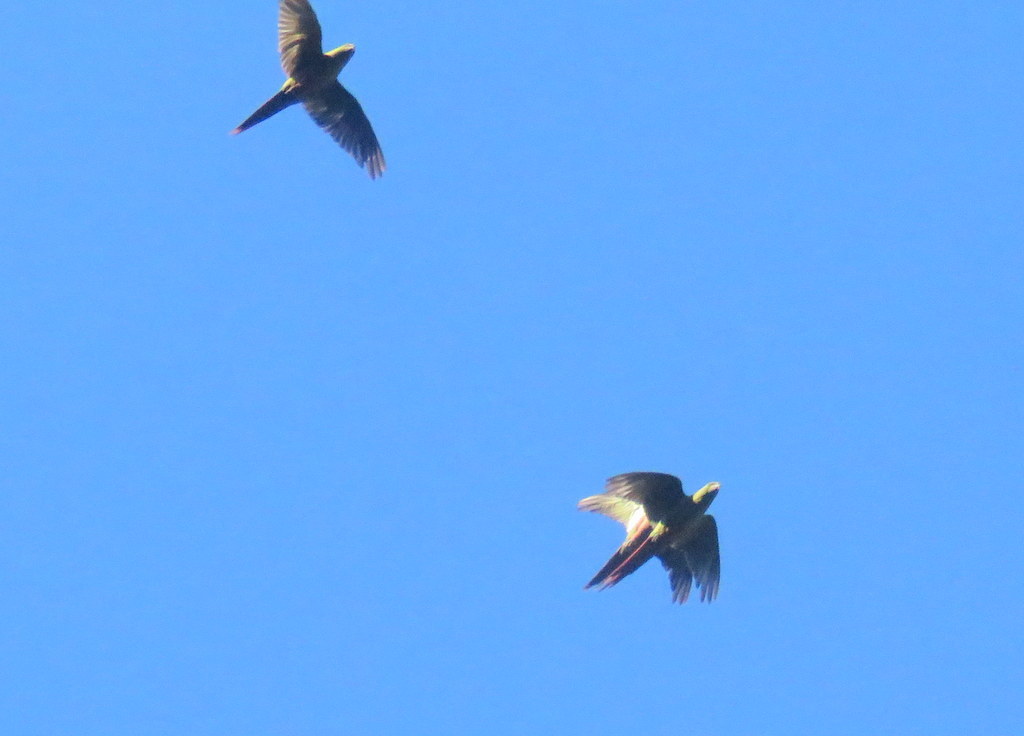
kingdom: Animalia
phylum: Chordata
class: Aves
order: Psittaciformes
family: Psittacidae
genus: Enicognathus
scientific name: Enicognathus ferrugineus
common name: Austral parakeet
